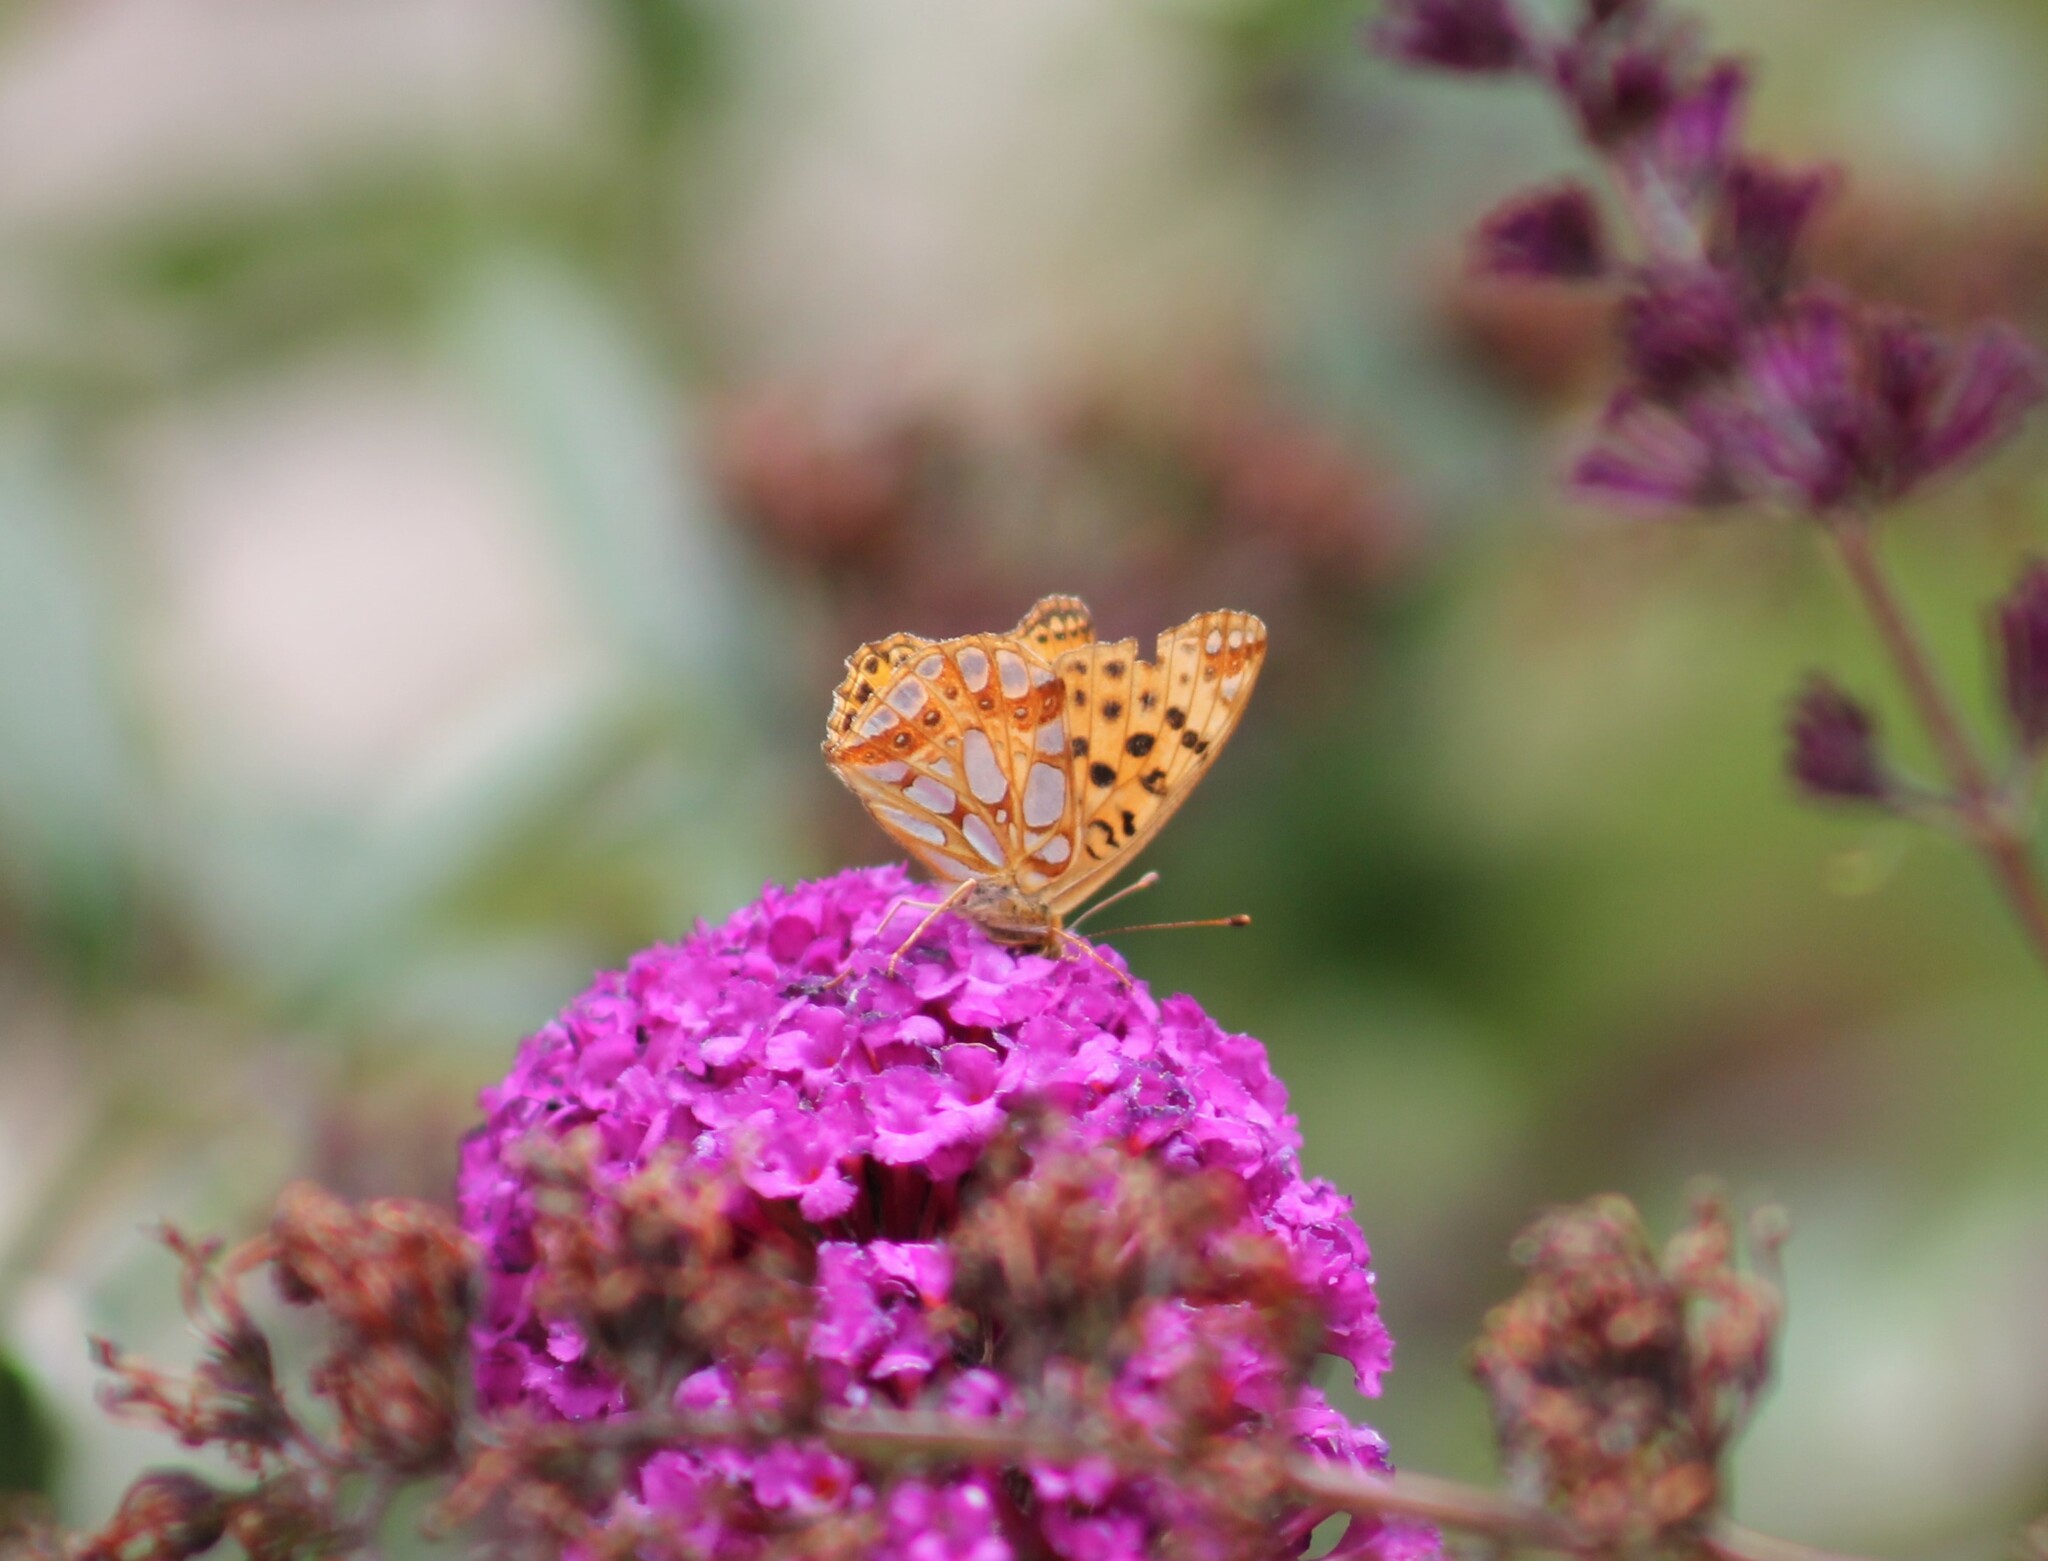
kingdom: Animalia
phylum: Arthropoda
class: Insecta
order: Lepidoptera
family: Nymphalidae
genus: Issoria
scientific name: Issoria lathonia
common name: Queen of spain fritillary
